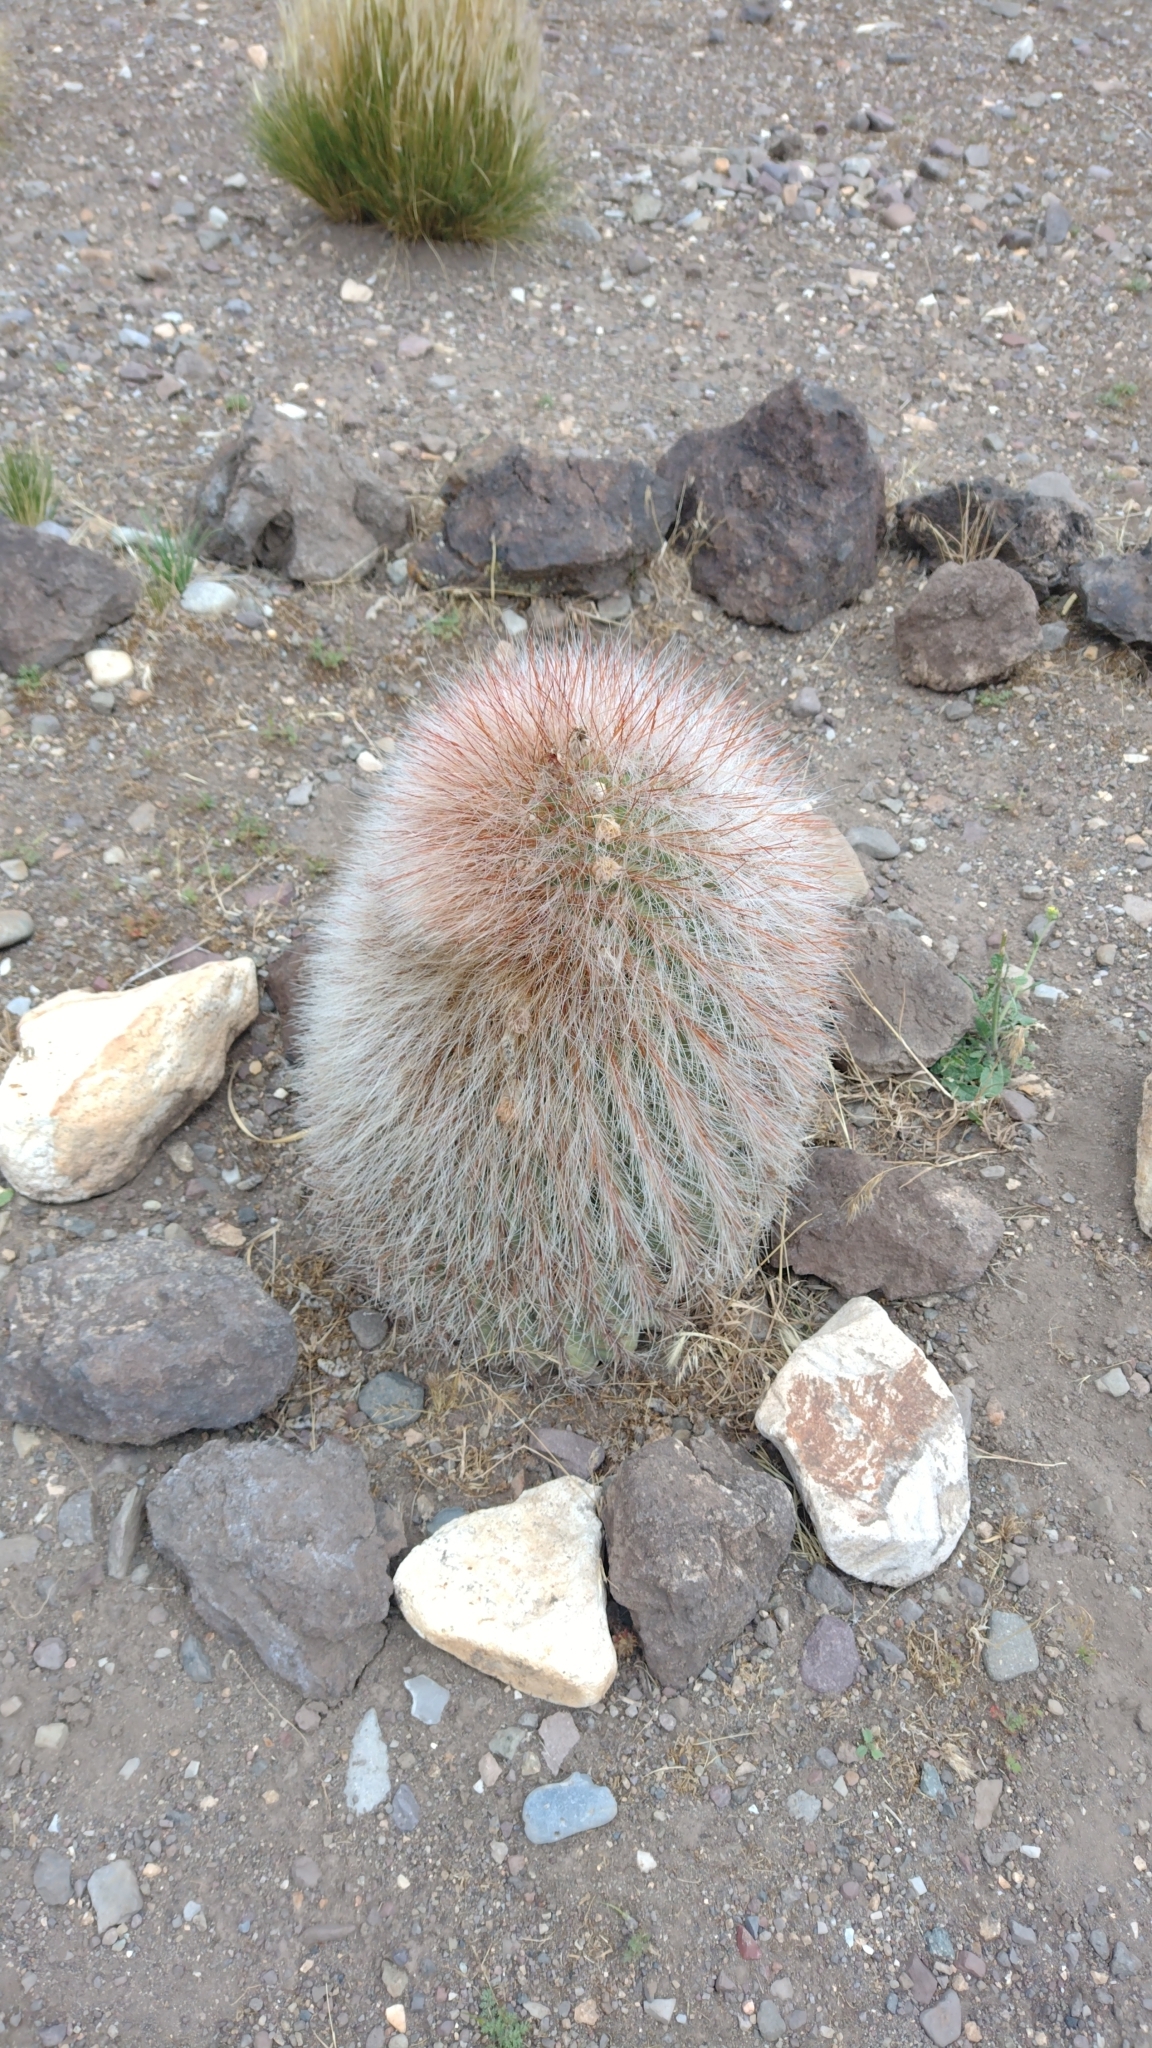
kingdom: Plantae
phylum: Tracheophyta
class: Magnoliopsida
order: Caryophyllales
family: Cactaceae
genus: Denmoza
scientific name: Denmoza rhodacantha
